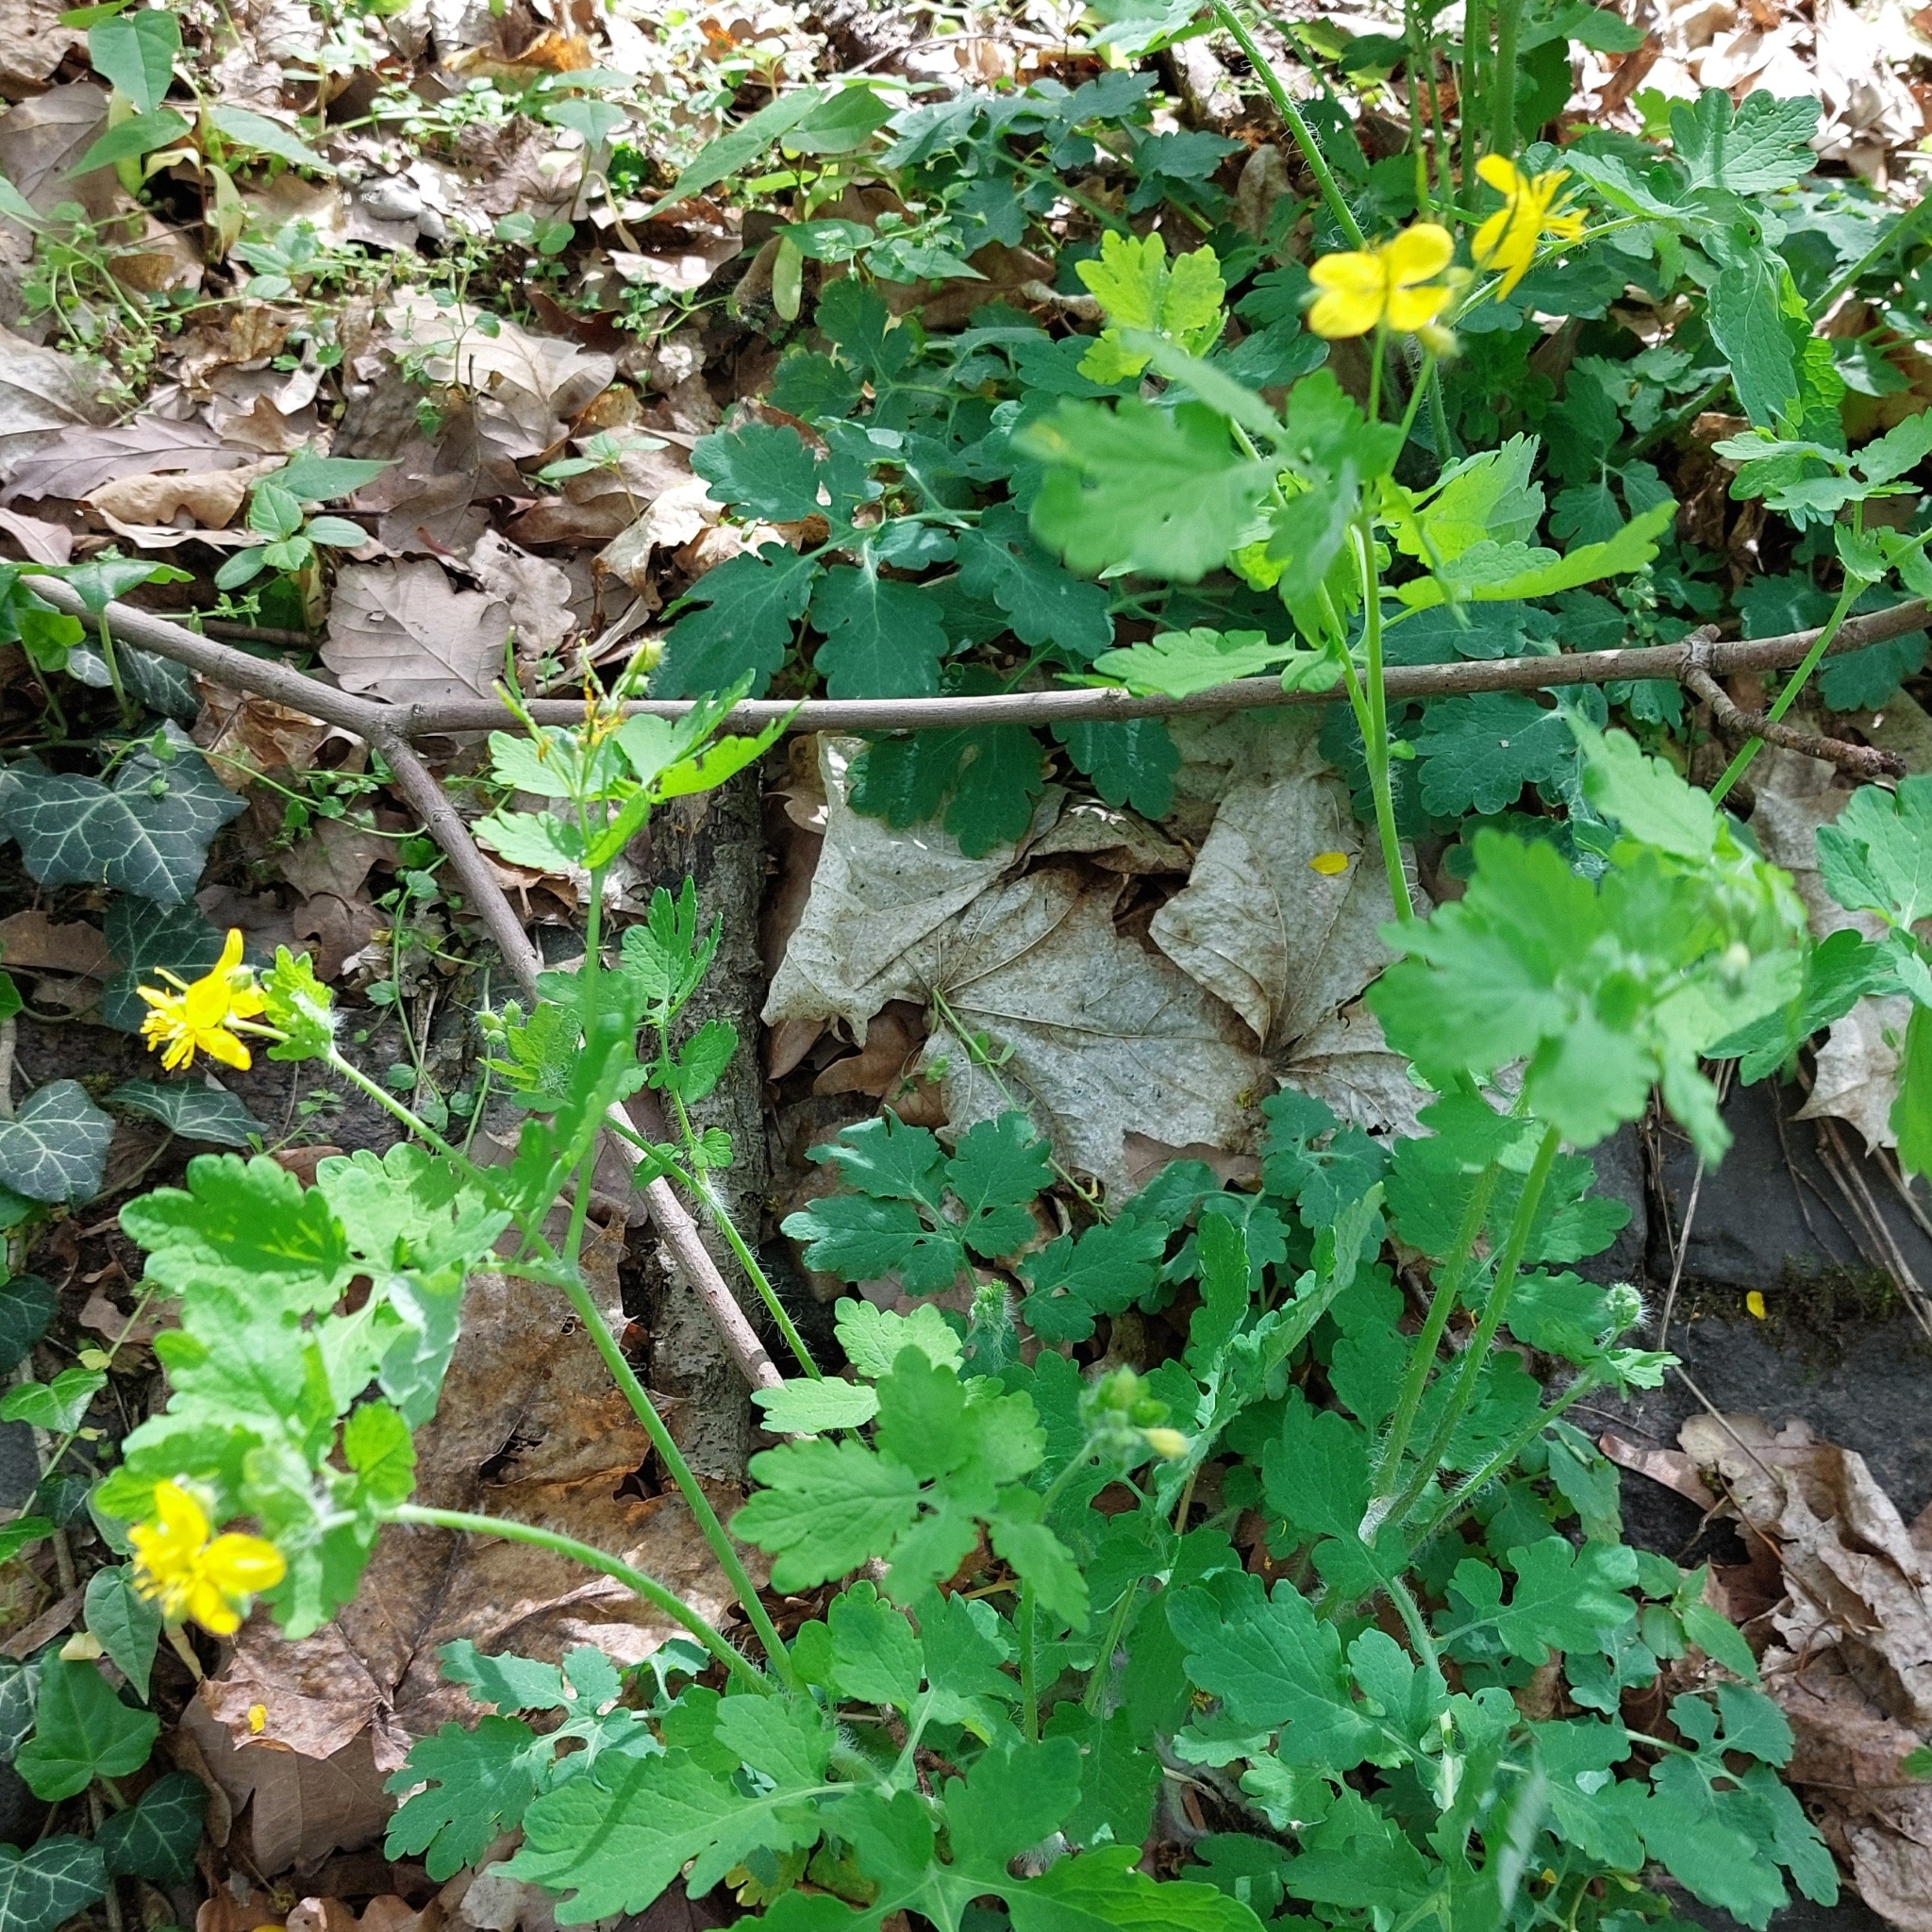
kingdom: Plantae
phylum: Tracheophyta
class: Magnoliopsida
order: Ranunculales
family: Papaveraceae
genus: Chelidonium
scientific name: Chelidonium majus
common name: Greater celandine
